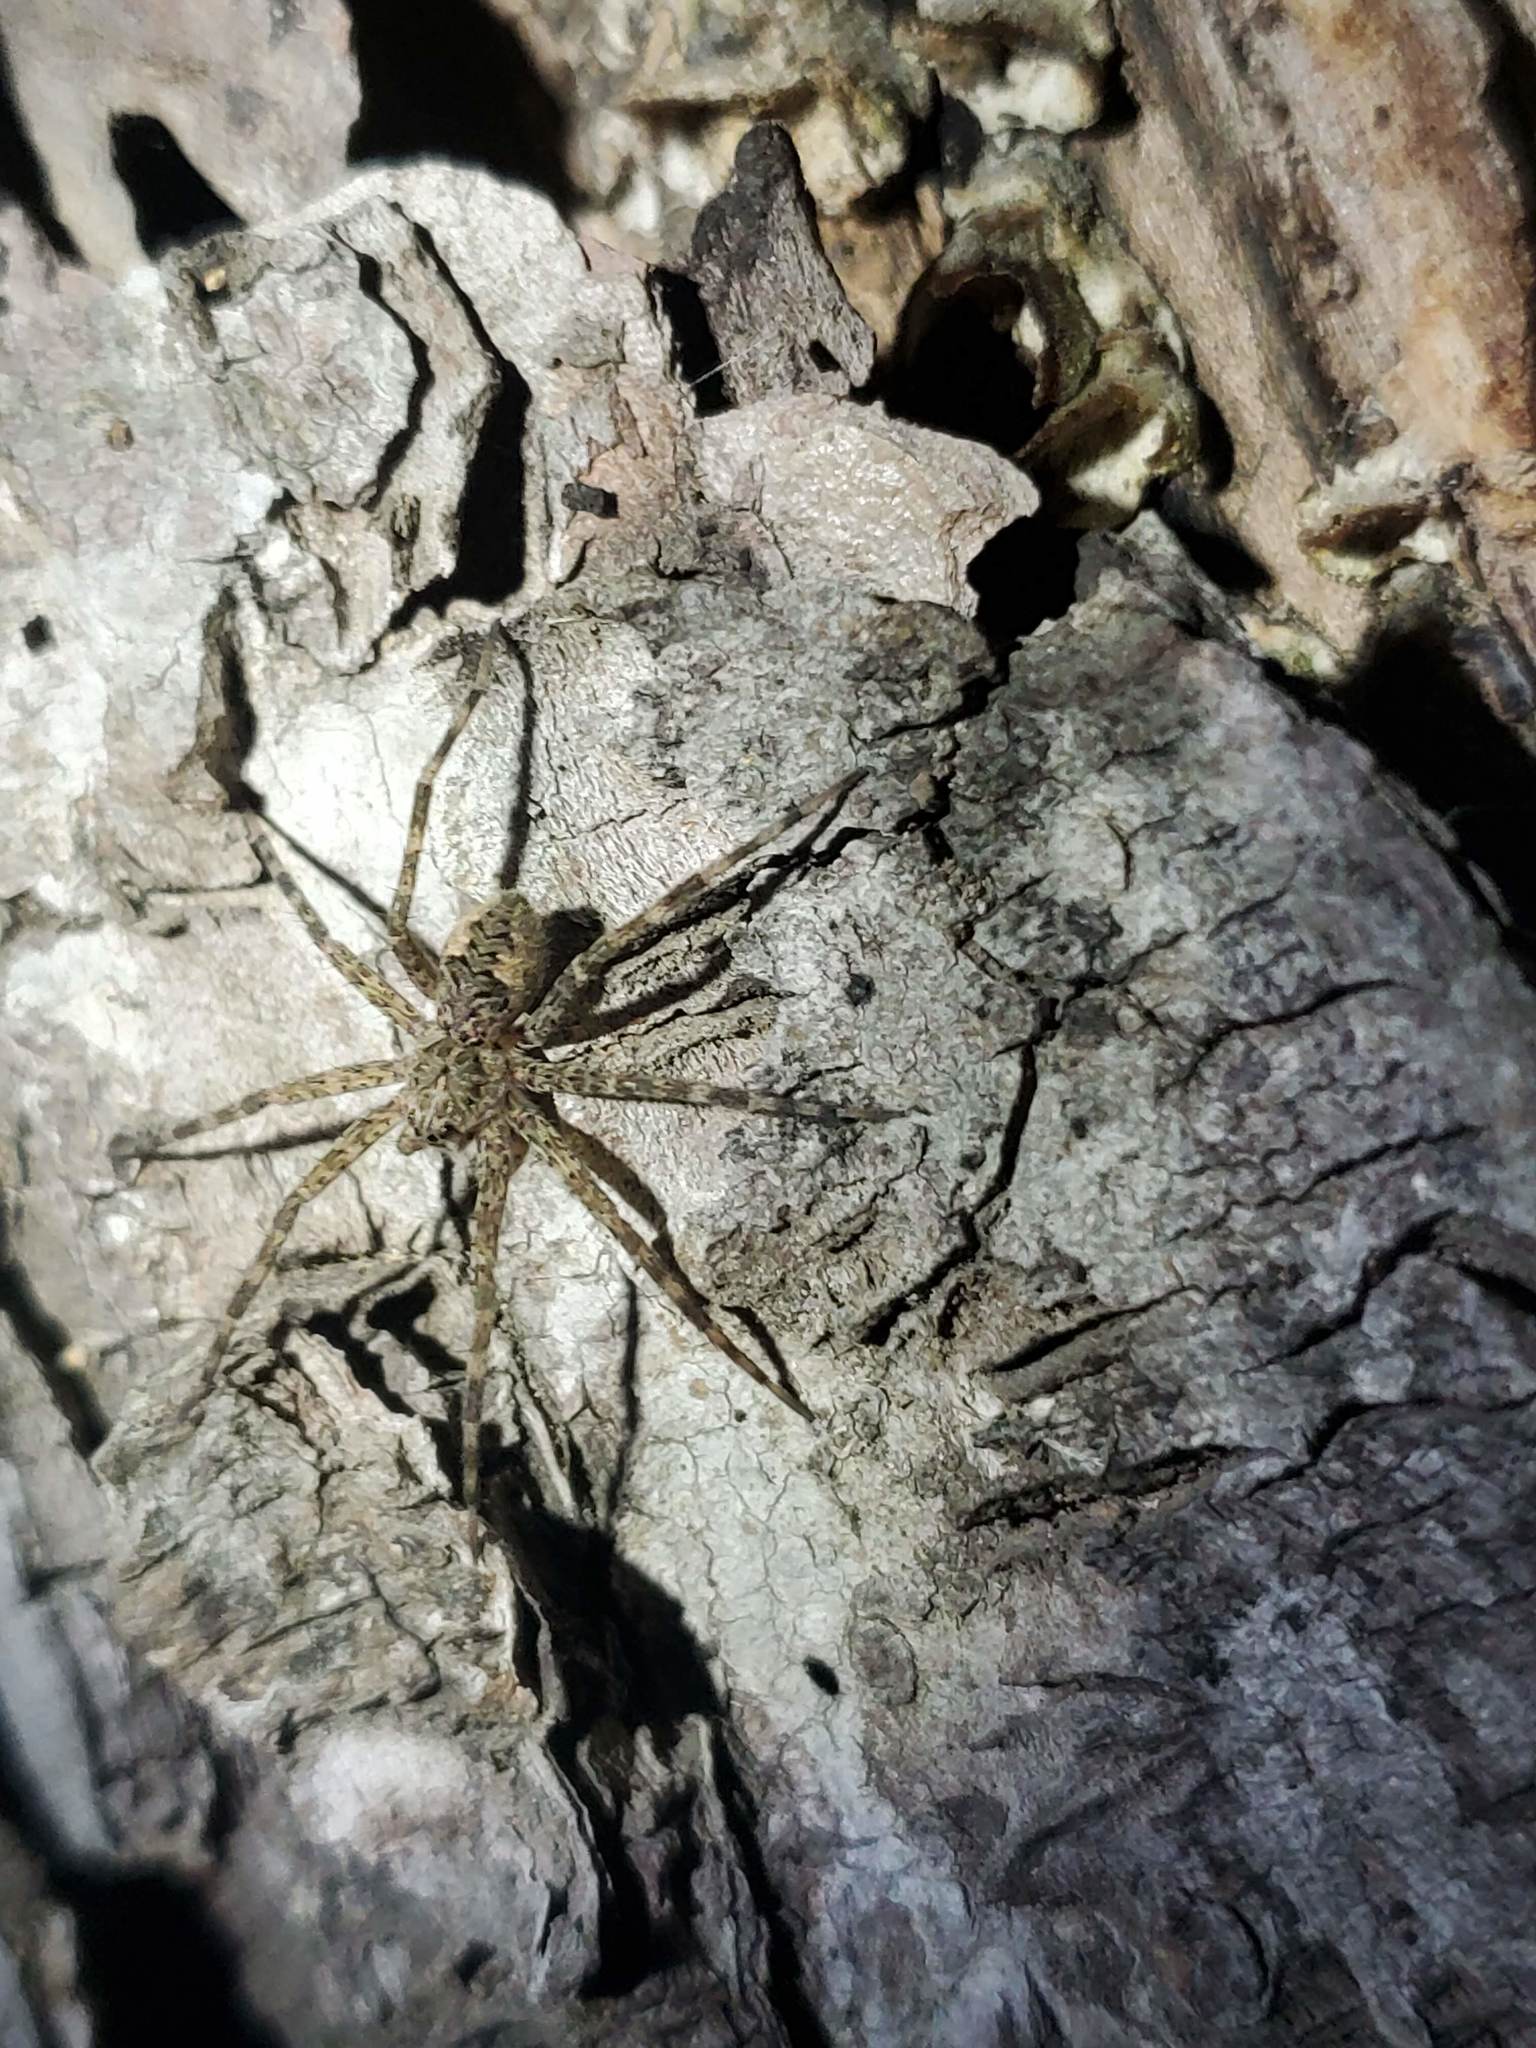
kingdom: Animalia
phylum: Arthropoda
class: Arachnida
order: Araneae
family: Pisauridae
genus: Dolomedes
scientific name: Dolomedes tenebrosus
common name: Dark fishing spider
